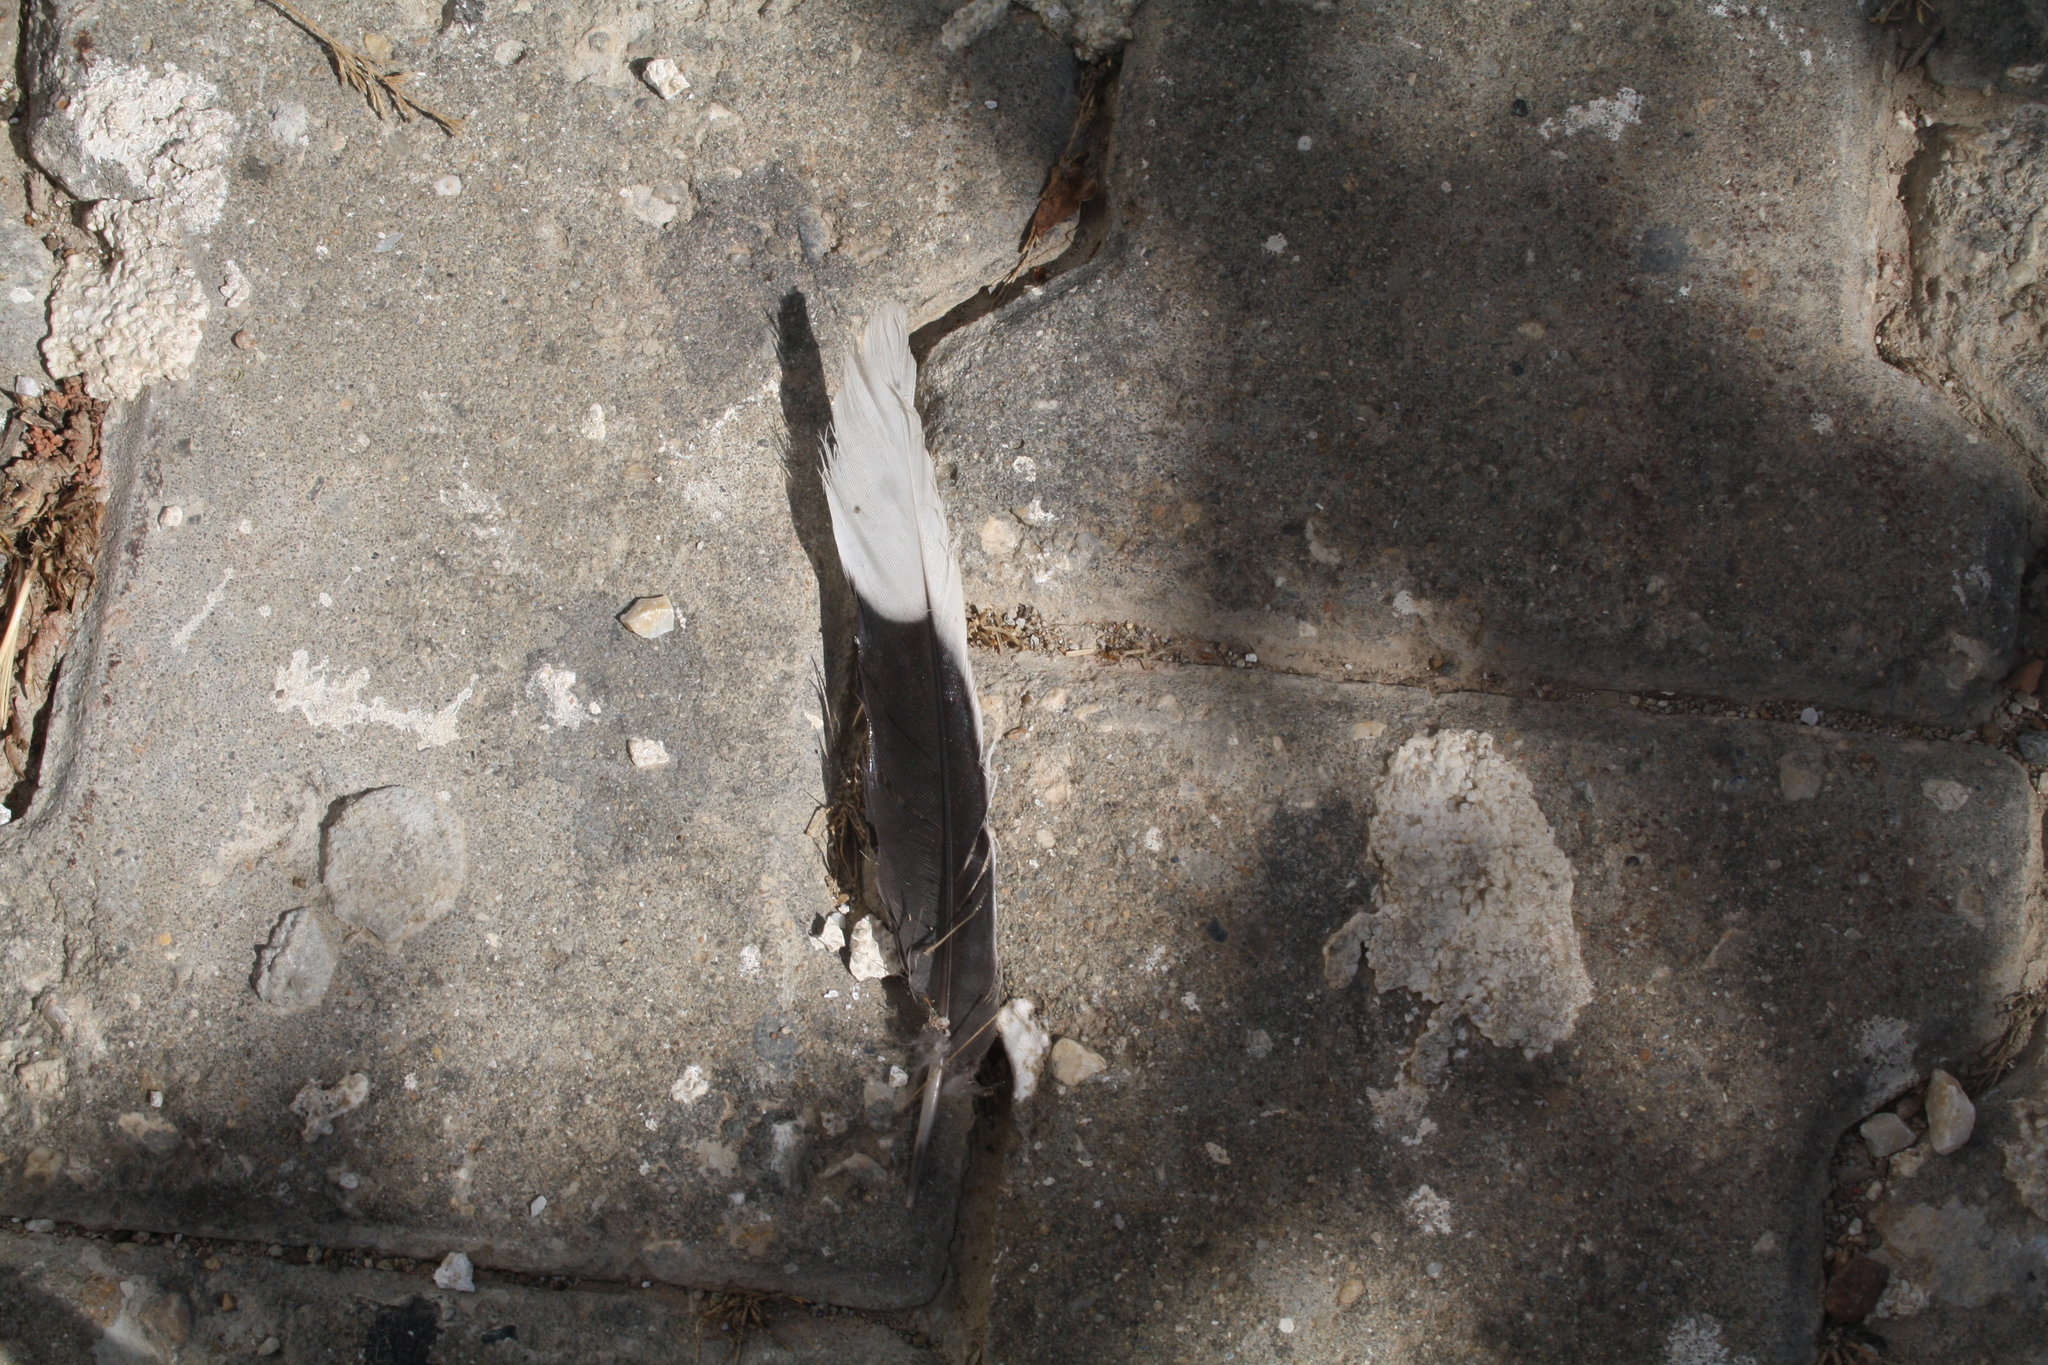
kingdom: Animalia
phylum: Chordata
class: Aves
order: Columbiformes
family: Columbidae
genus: Spilopelia
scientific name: Spilopelia senegalensis
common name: Laughing dove
